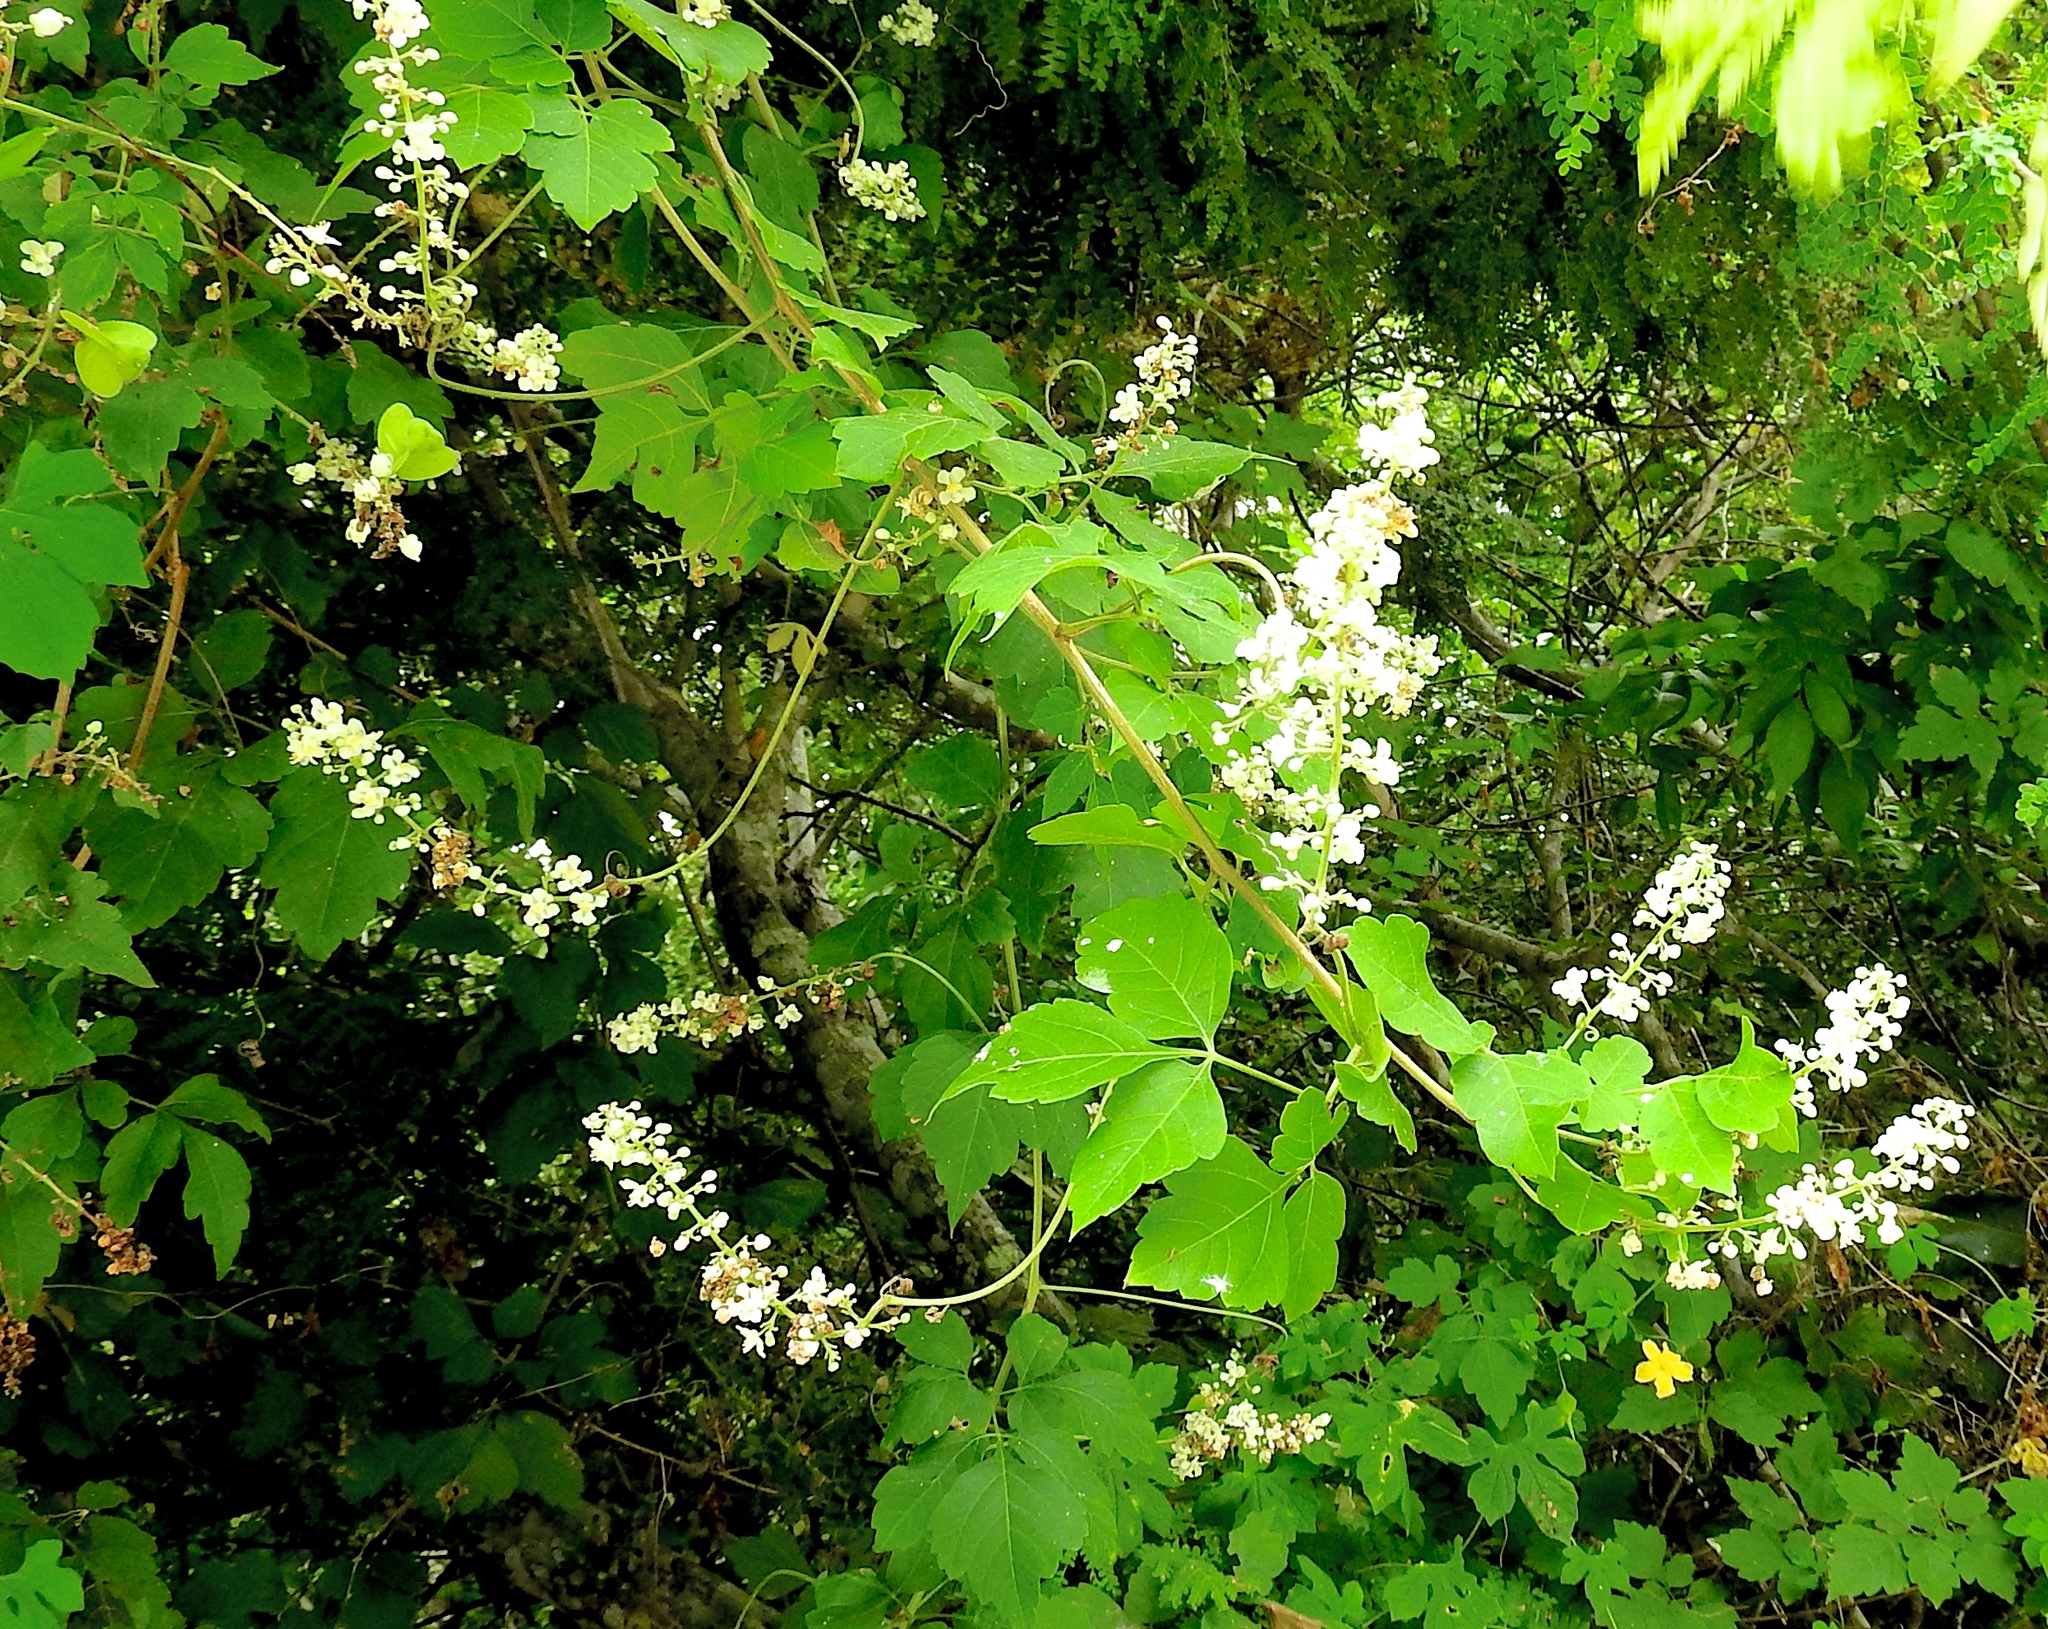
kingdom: Plantae
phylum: Tracheophyta
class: Magnoliopsida
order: Sapindales
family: Sapindaceae
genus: Paullinia
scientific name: Paullinia fuscescens
